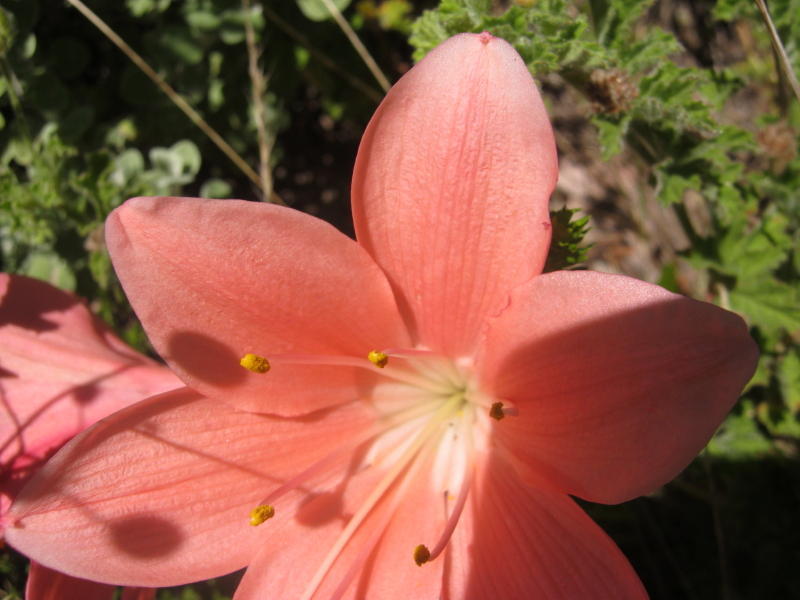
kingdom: Plantae
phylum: Tracheophyta
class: Liliopsida
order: Asparagales
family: Amaryllidaceae
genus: Cyrtanthus
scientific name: Cyrtanthus elatus
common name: Scarborough-lily
